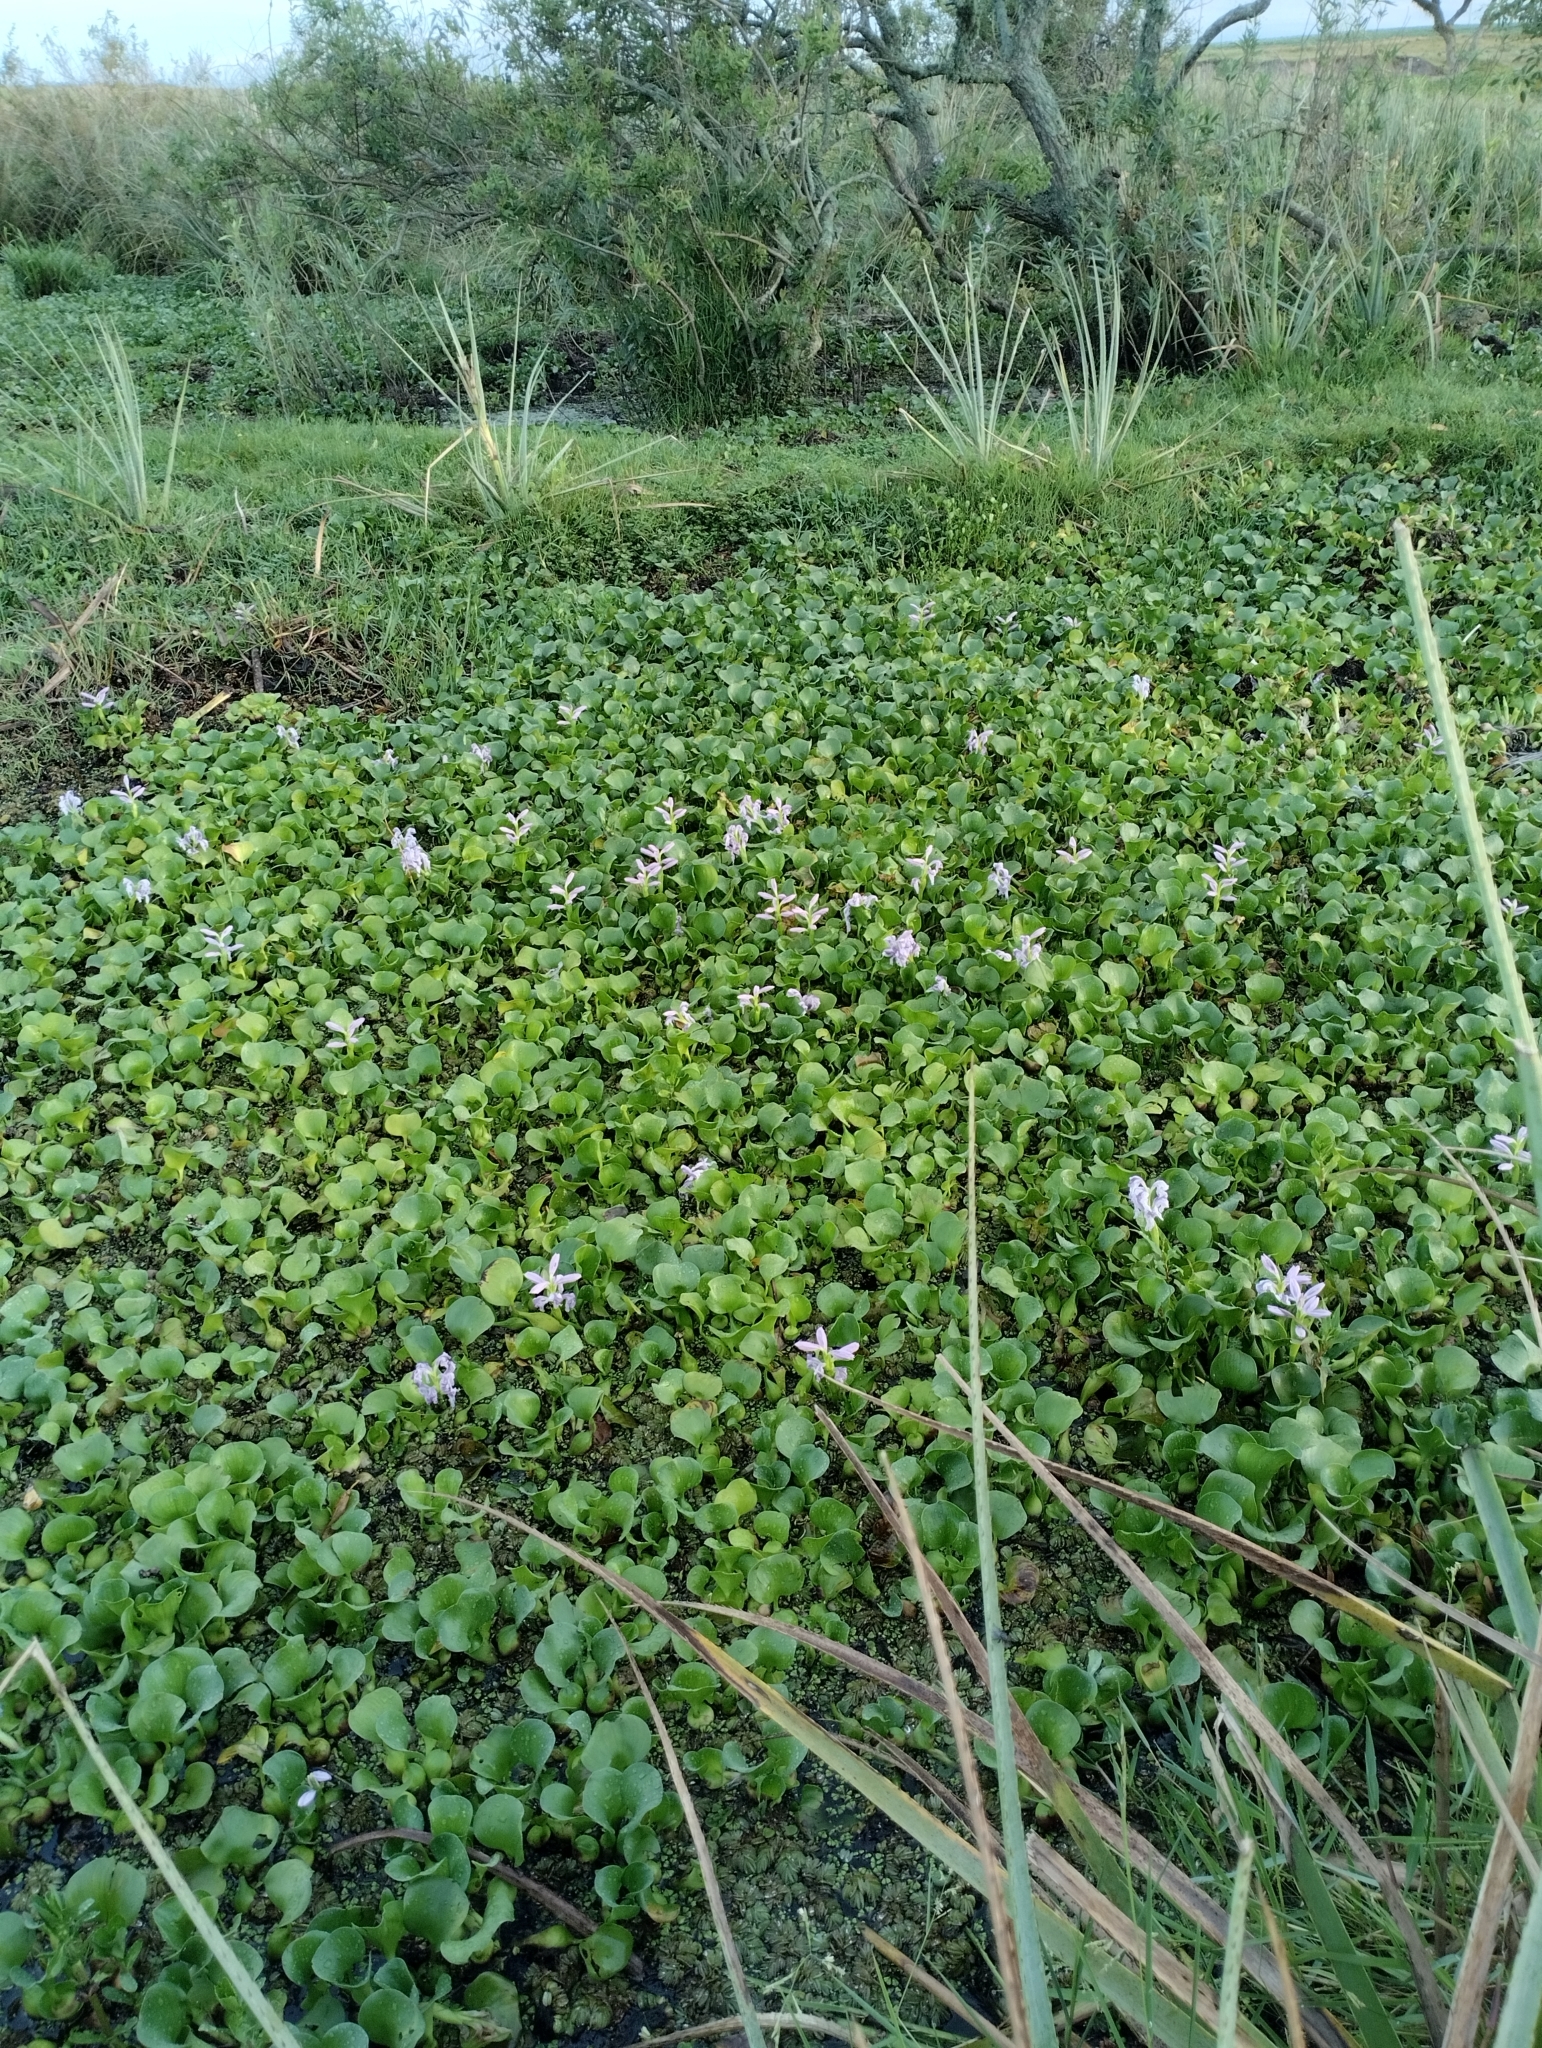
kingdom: Plantae
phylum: Tracheophyta
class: Liliopsida
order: Commelinales
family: Pontederiaceae
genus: Pontederia
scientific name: Pontederia crassipes
